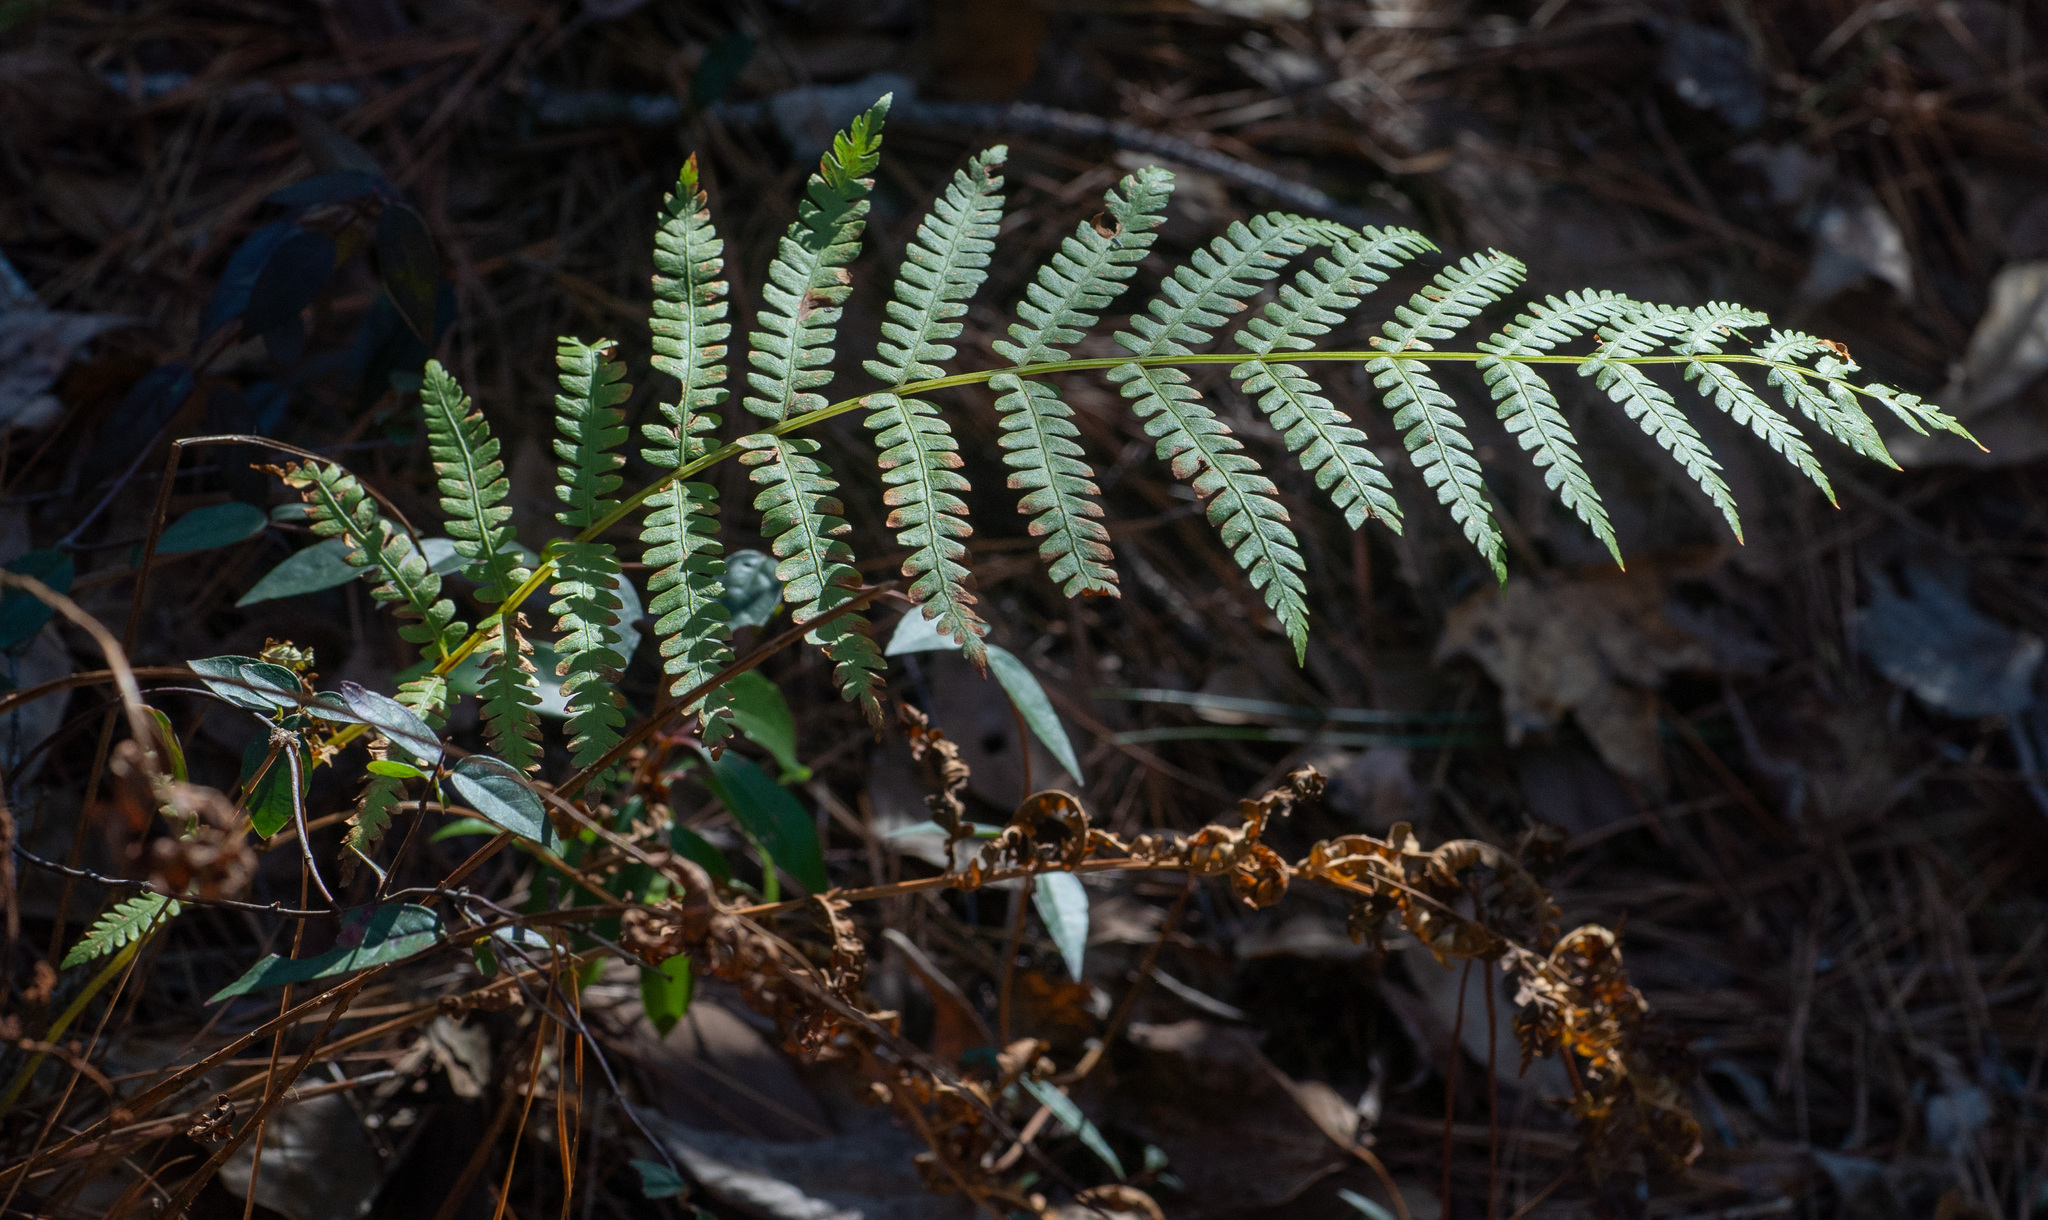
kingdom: Plantae
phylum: Tracheophyta
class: Polypodiopsida
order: Osmundales
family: Osmundaceae
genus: Osmundastrum
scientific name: Osmundastrum cinnamomeum
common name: Cinnamon fern
